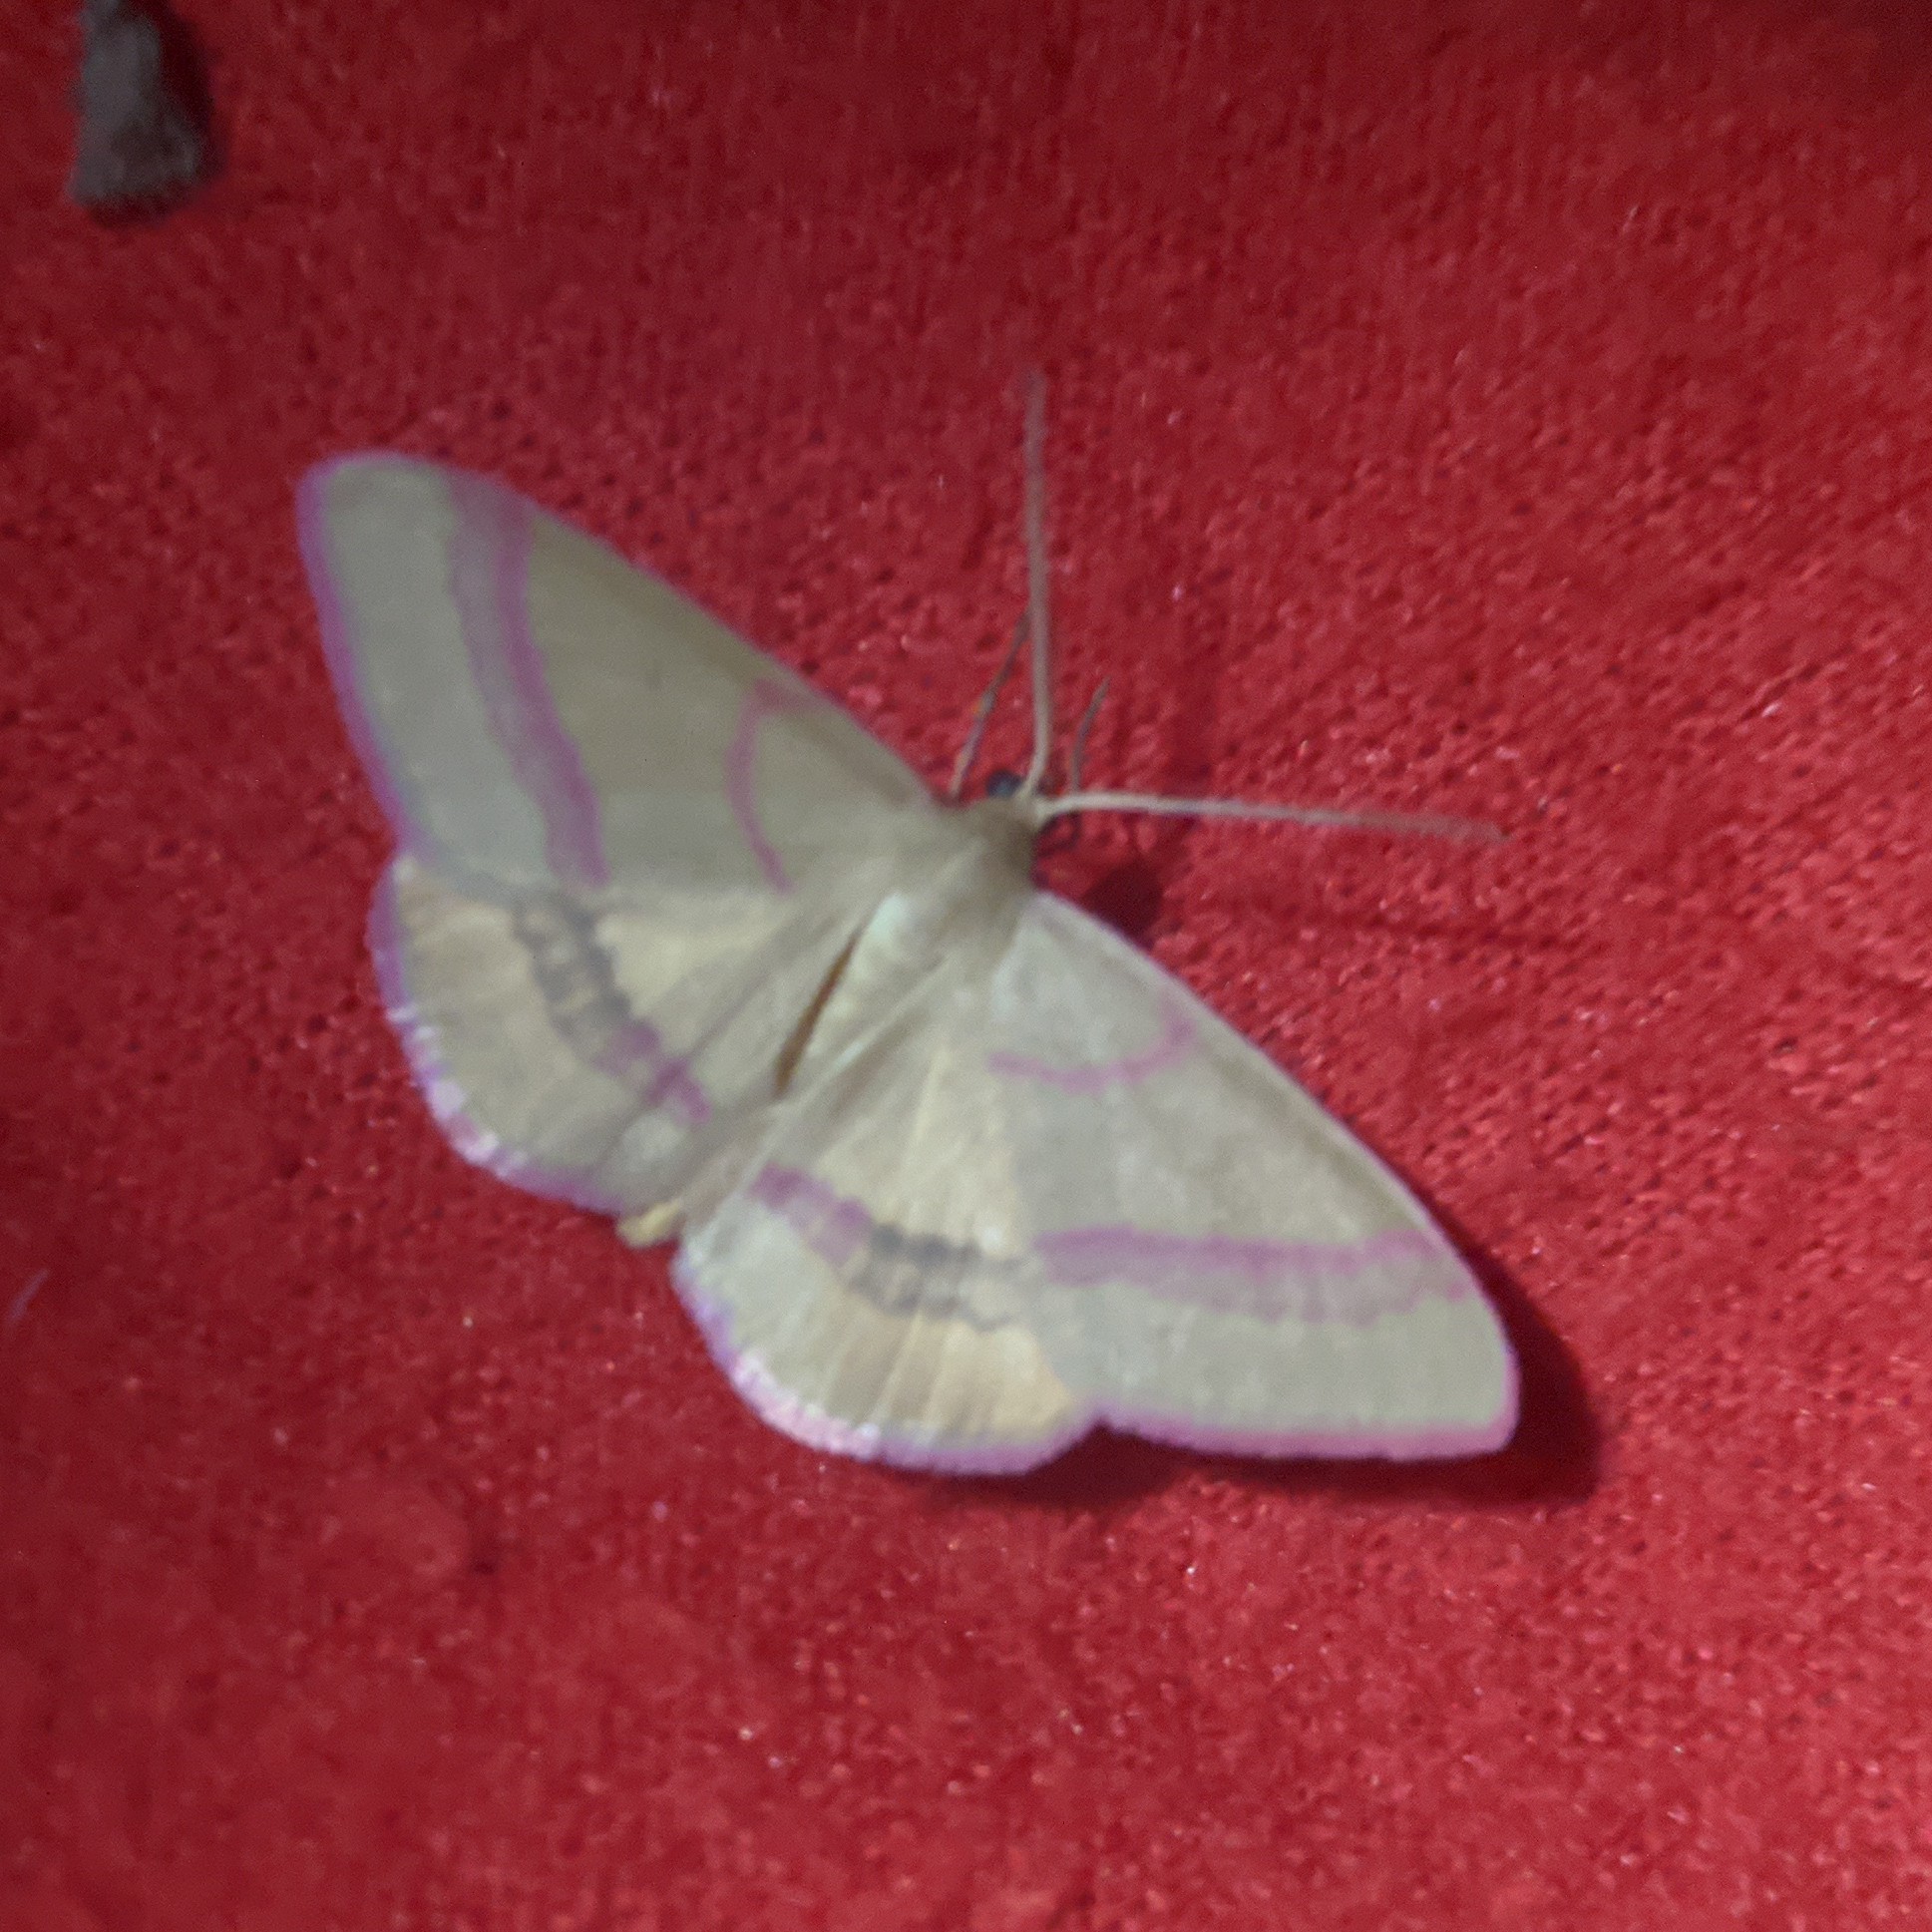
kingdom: Animalia
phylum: Arthropoda
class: Insecta
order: Lepidoptera
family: Geometridae
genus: Rhodostrophia
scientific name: Rhodostrophia calabra
